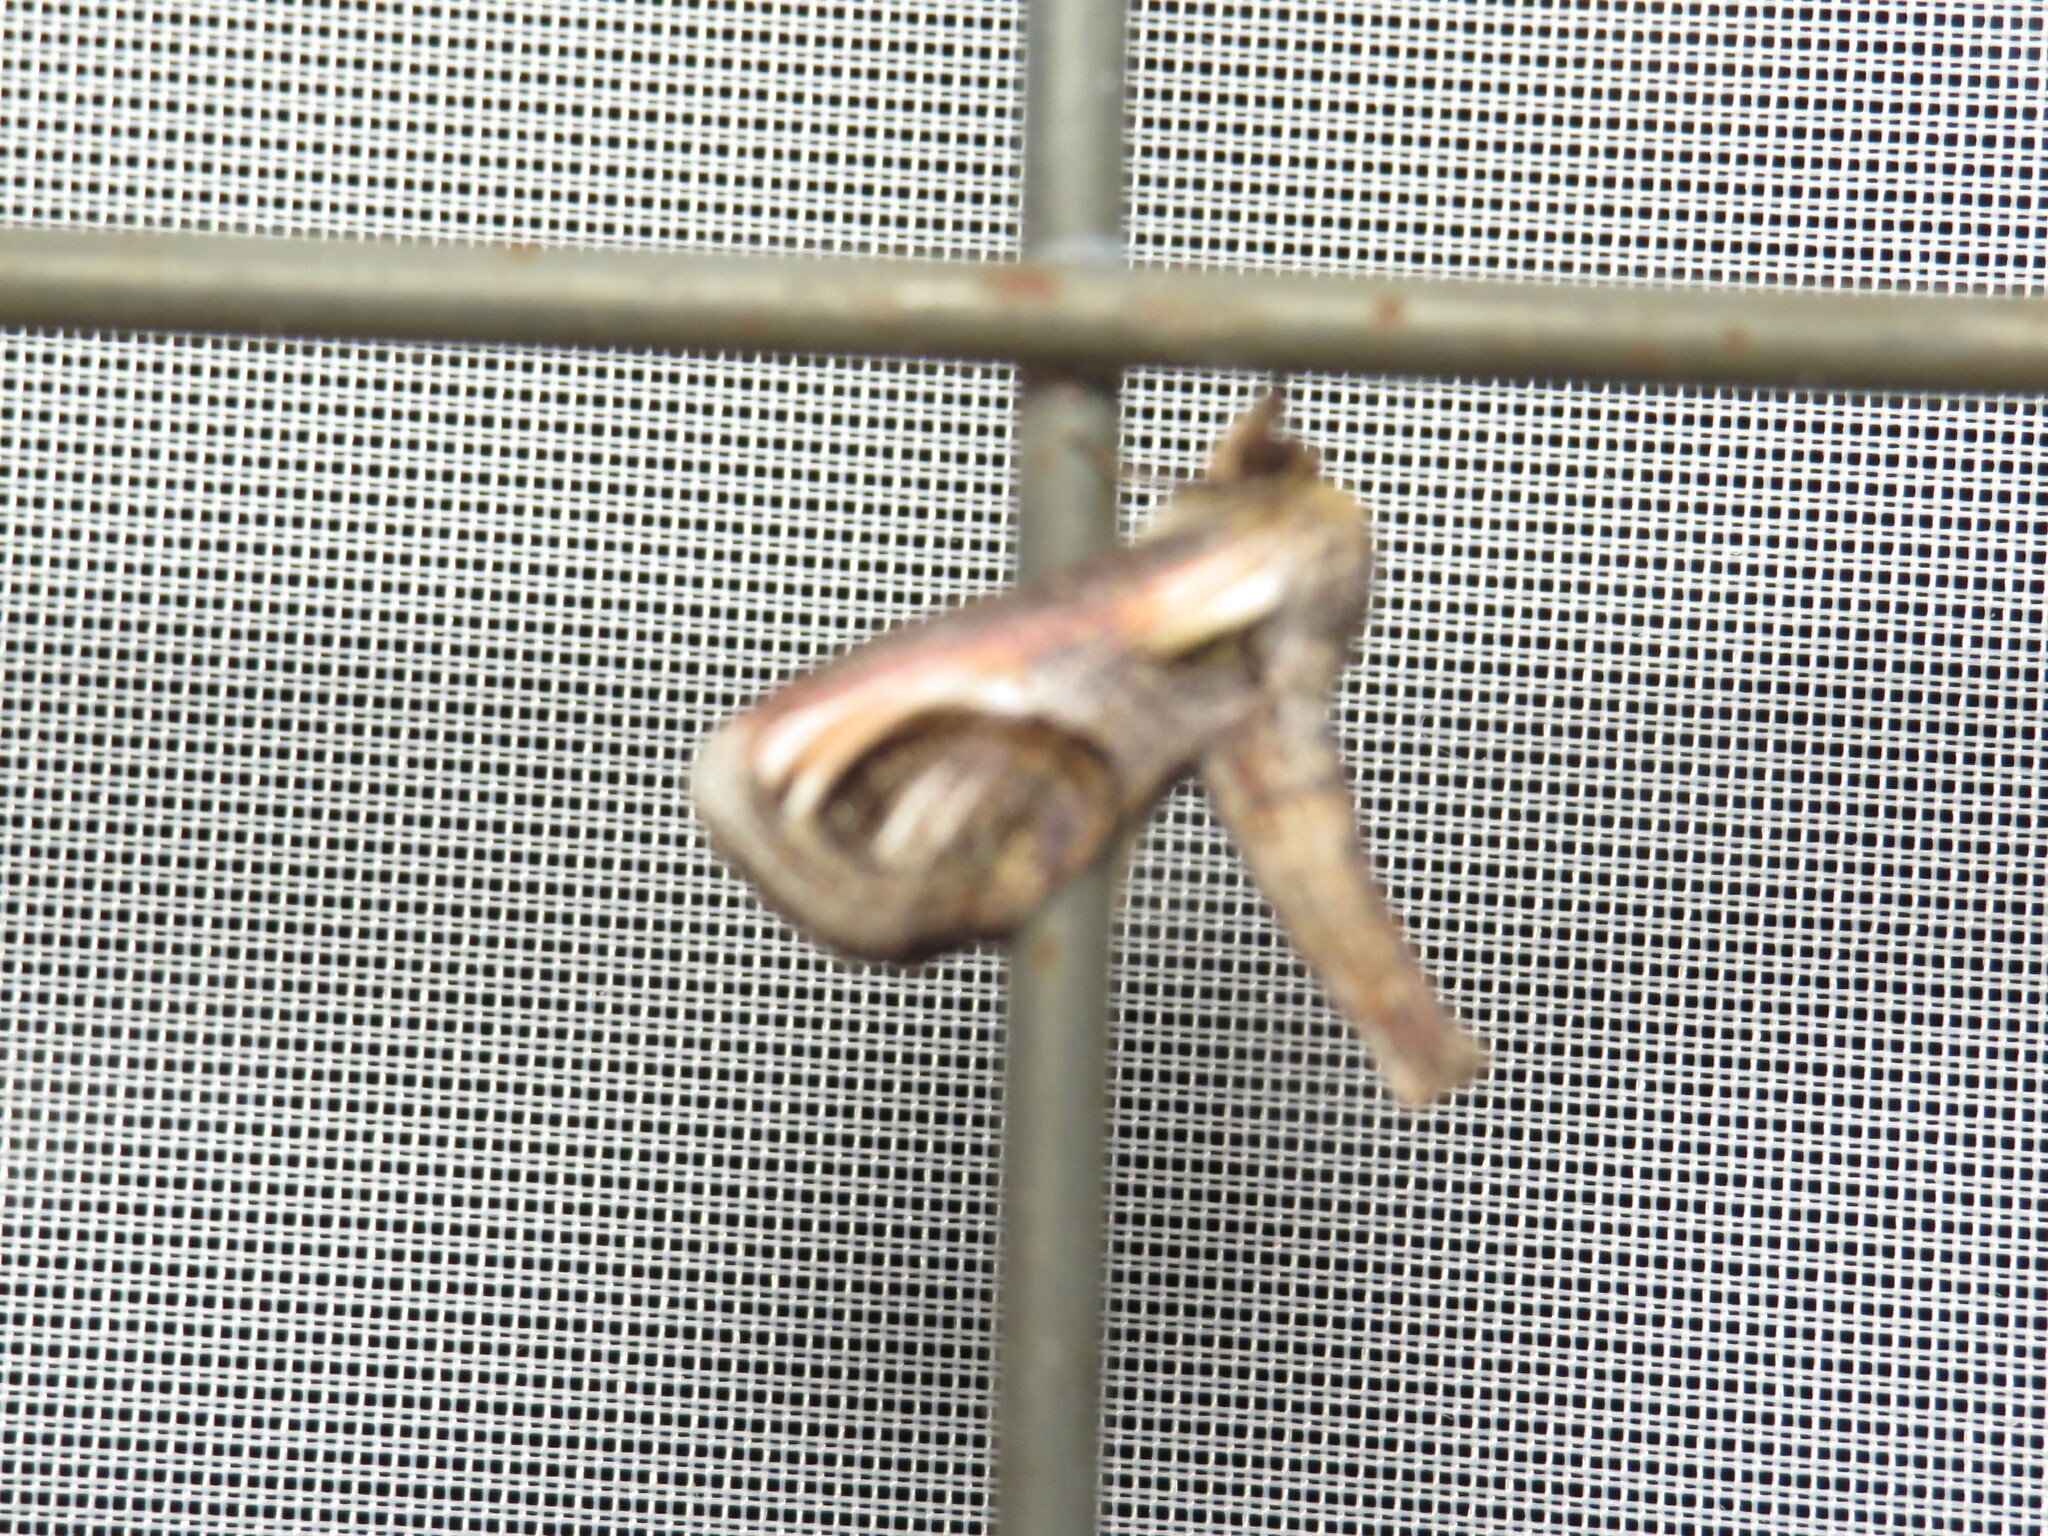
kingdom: Animalia
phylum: Arthropoda
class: Insecta
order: Lepidoptera
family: Euteliidae
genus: Paectes
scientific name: Paectes oculatrix
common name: Eyed paectes moth
